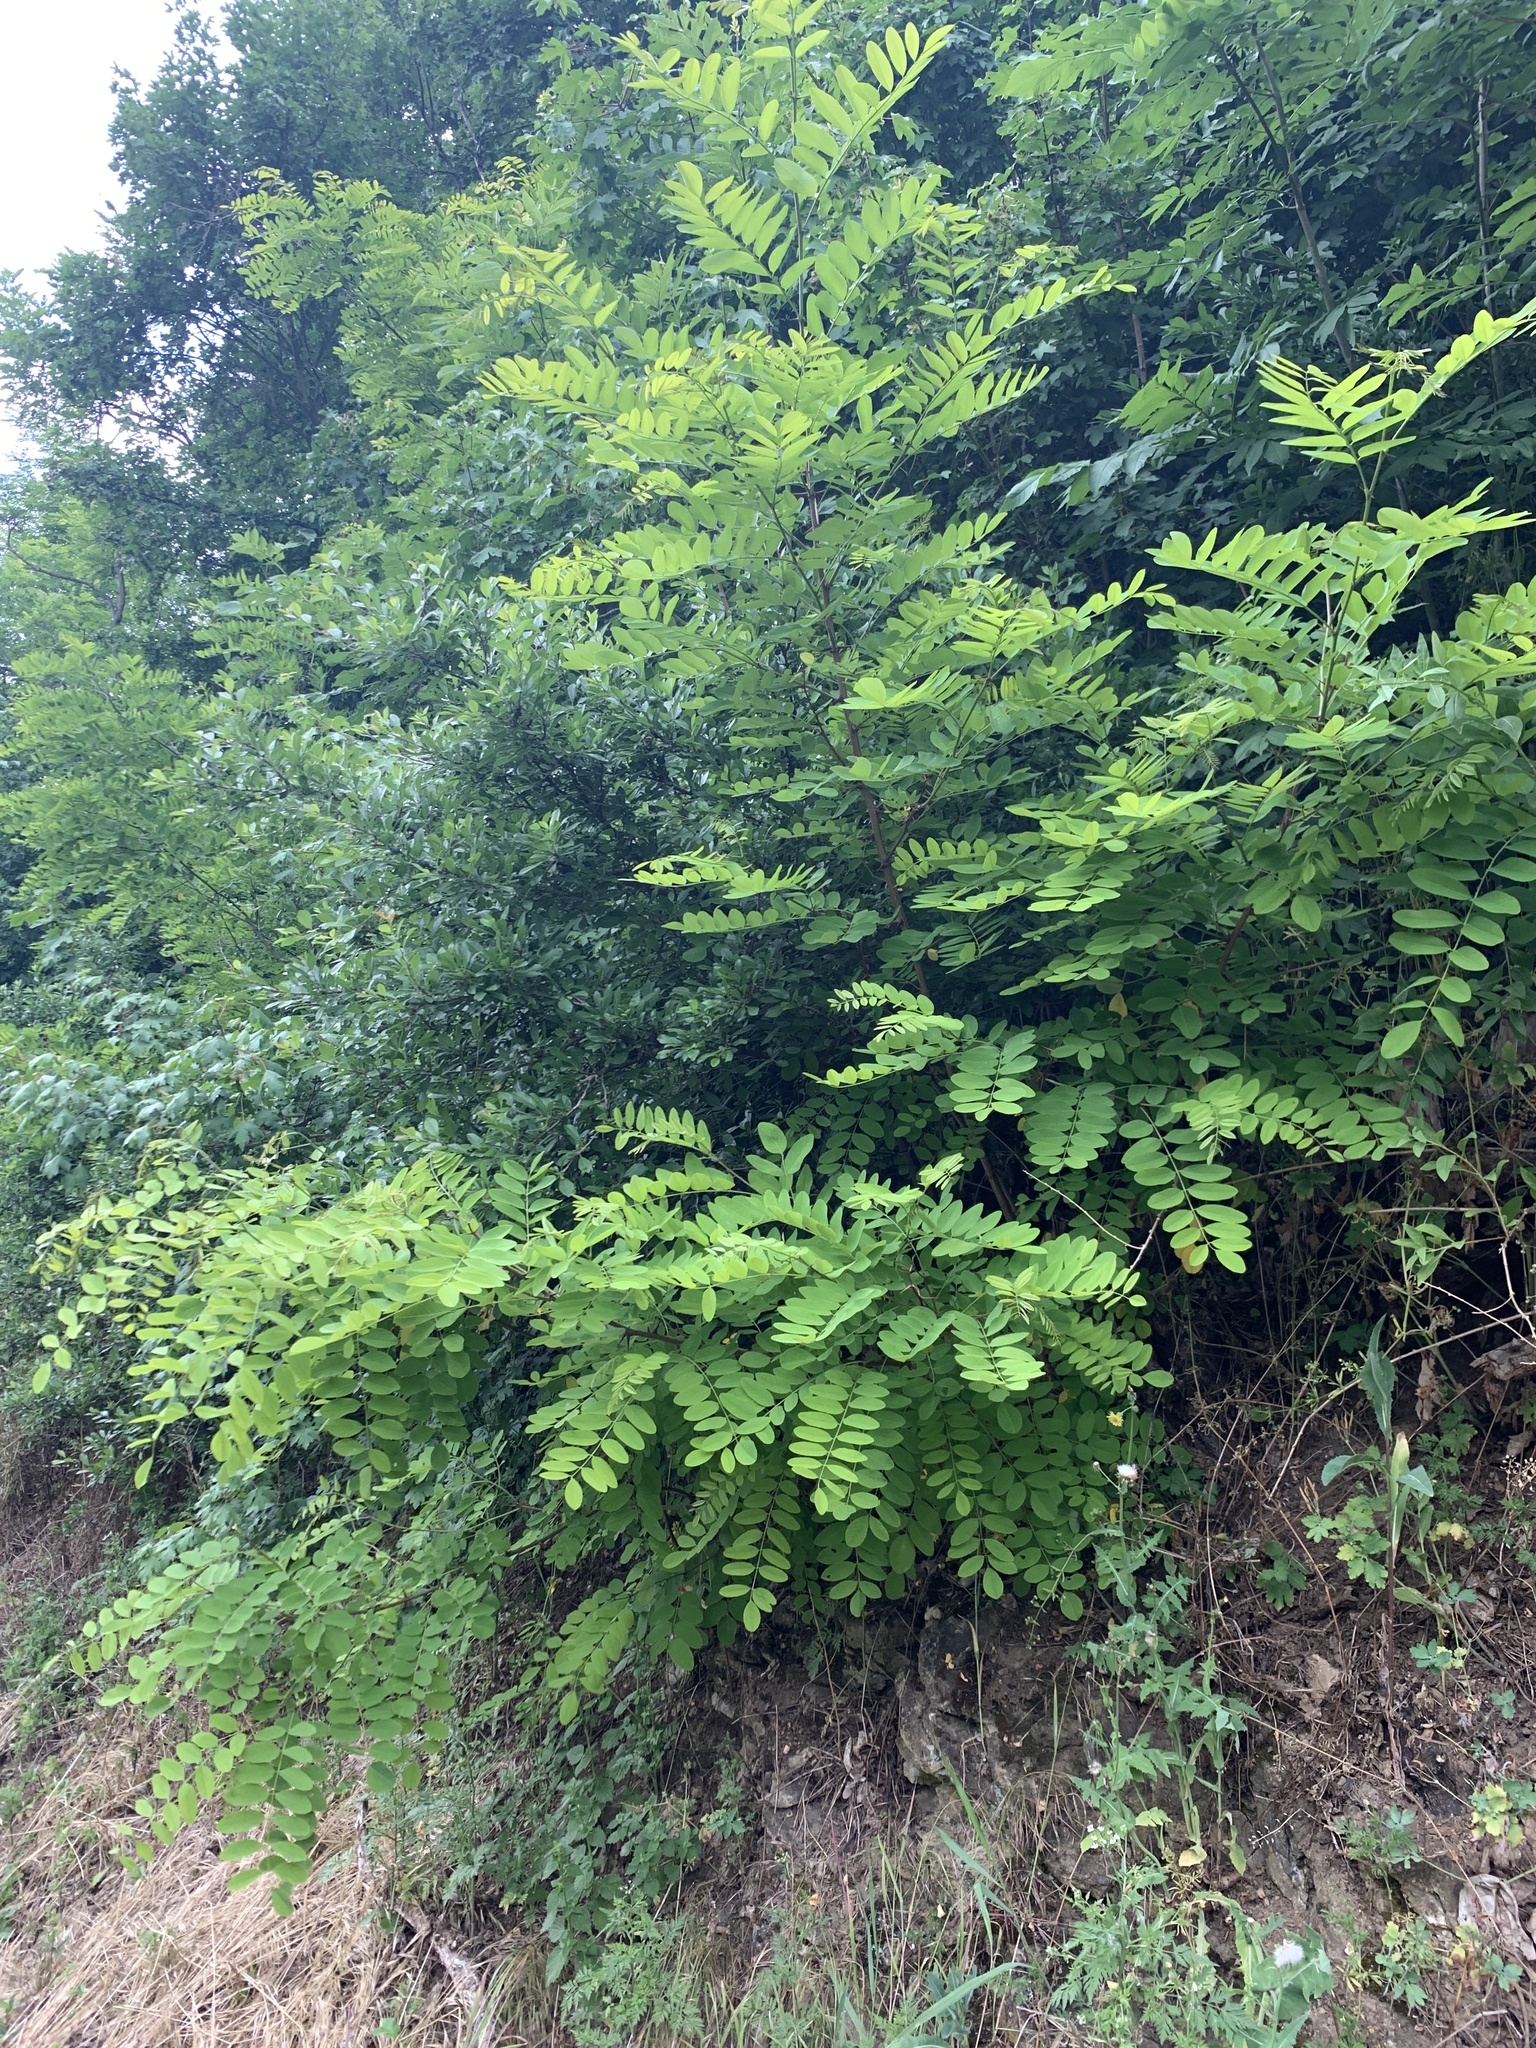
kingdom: Plantae
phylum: Tracheophyta
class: Magnoliopsida
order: Fabales
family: Fabaceae
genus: Robinia
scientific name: Robinia pseudoacacia
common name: Black locust
